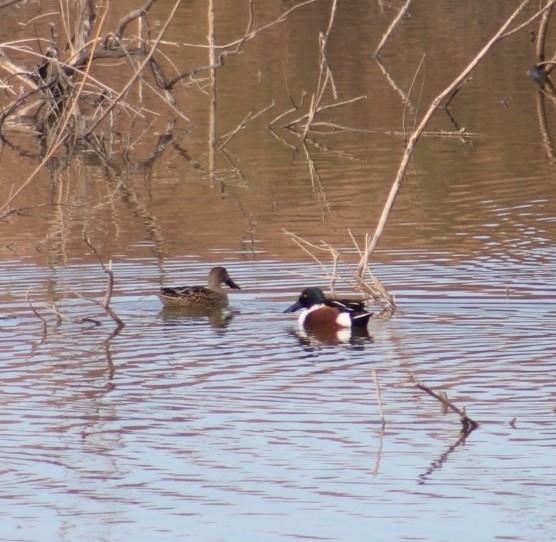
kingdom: Animalia
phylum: Chordata
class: Aves
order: Anseriformes
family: Anatidae
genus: Spatula
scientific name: Spatula clypeata
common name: Northern shoveler
